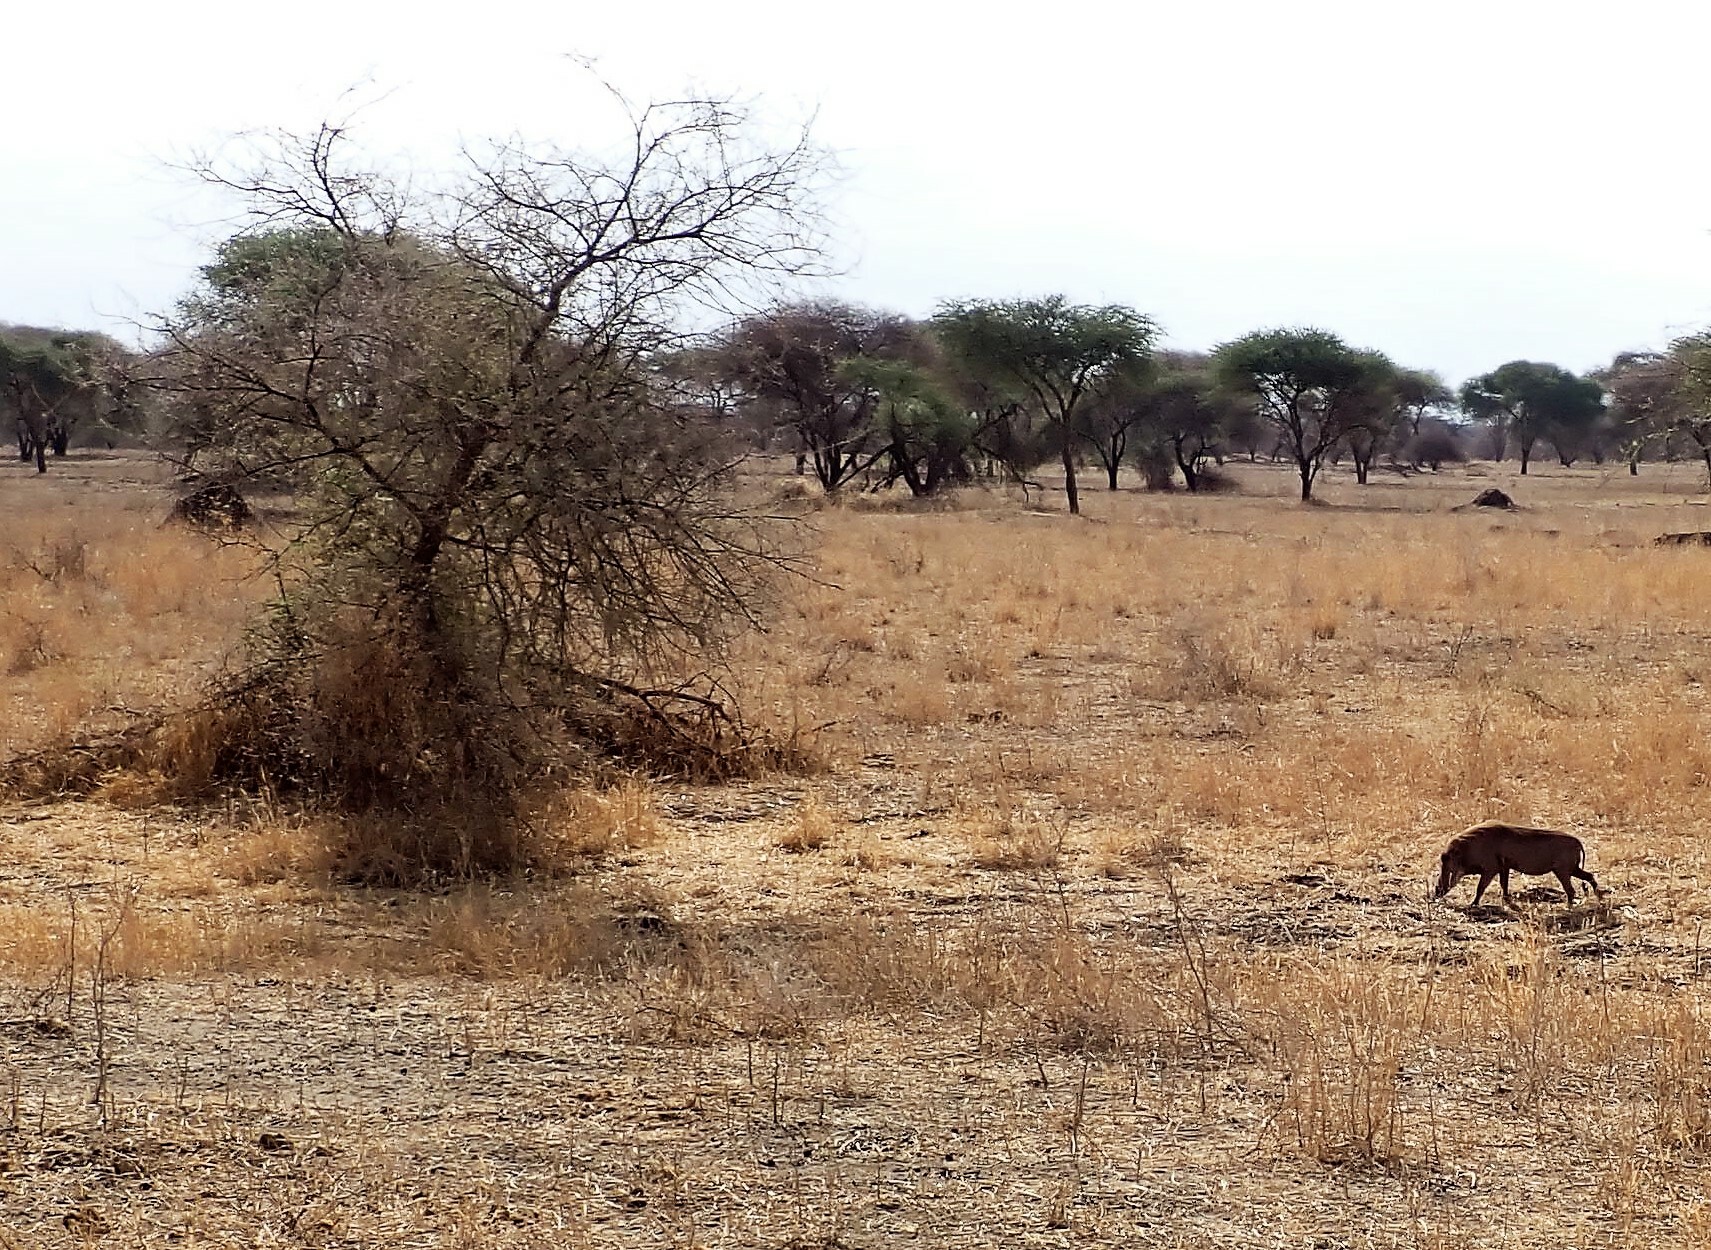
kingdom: Animalia
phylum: Chordata
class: Mammalia
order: Artiodactyla
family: Suidae
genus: Phacochoerus
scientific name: Phacochoerus africanus
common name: Common warthog
